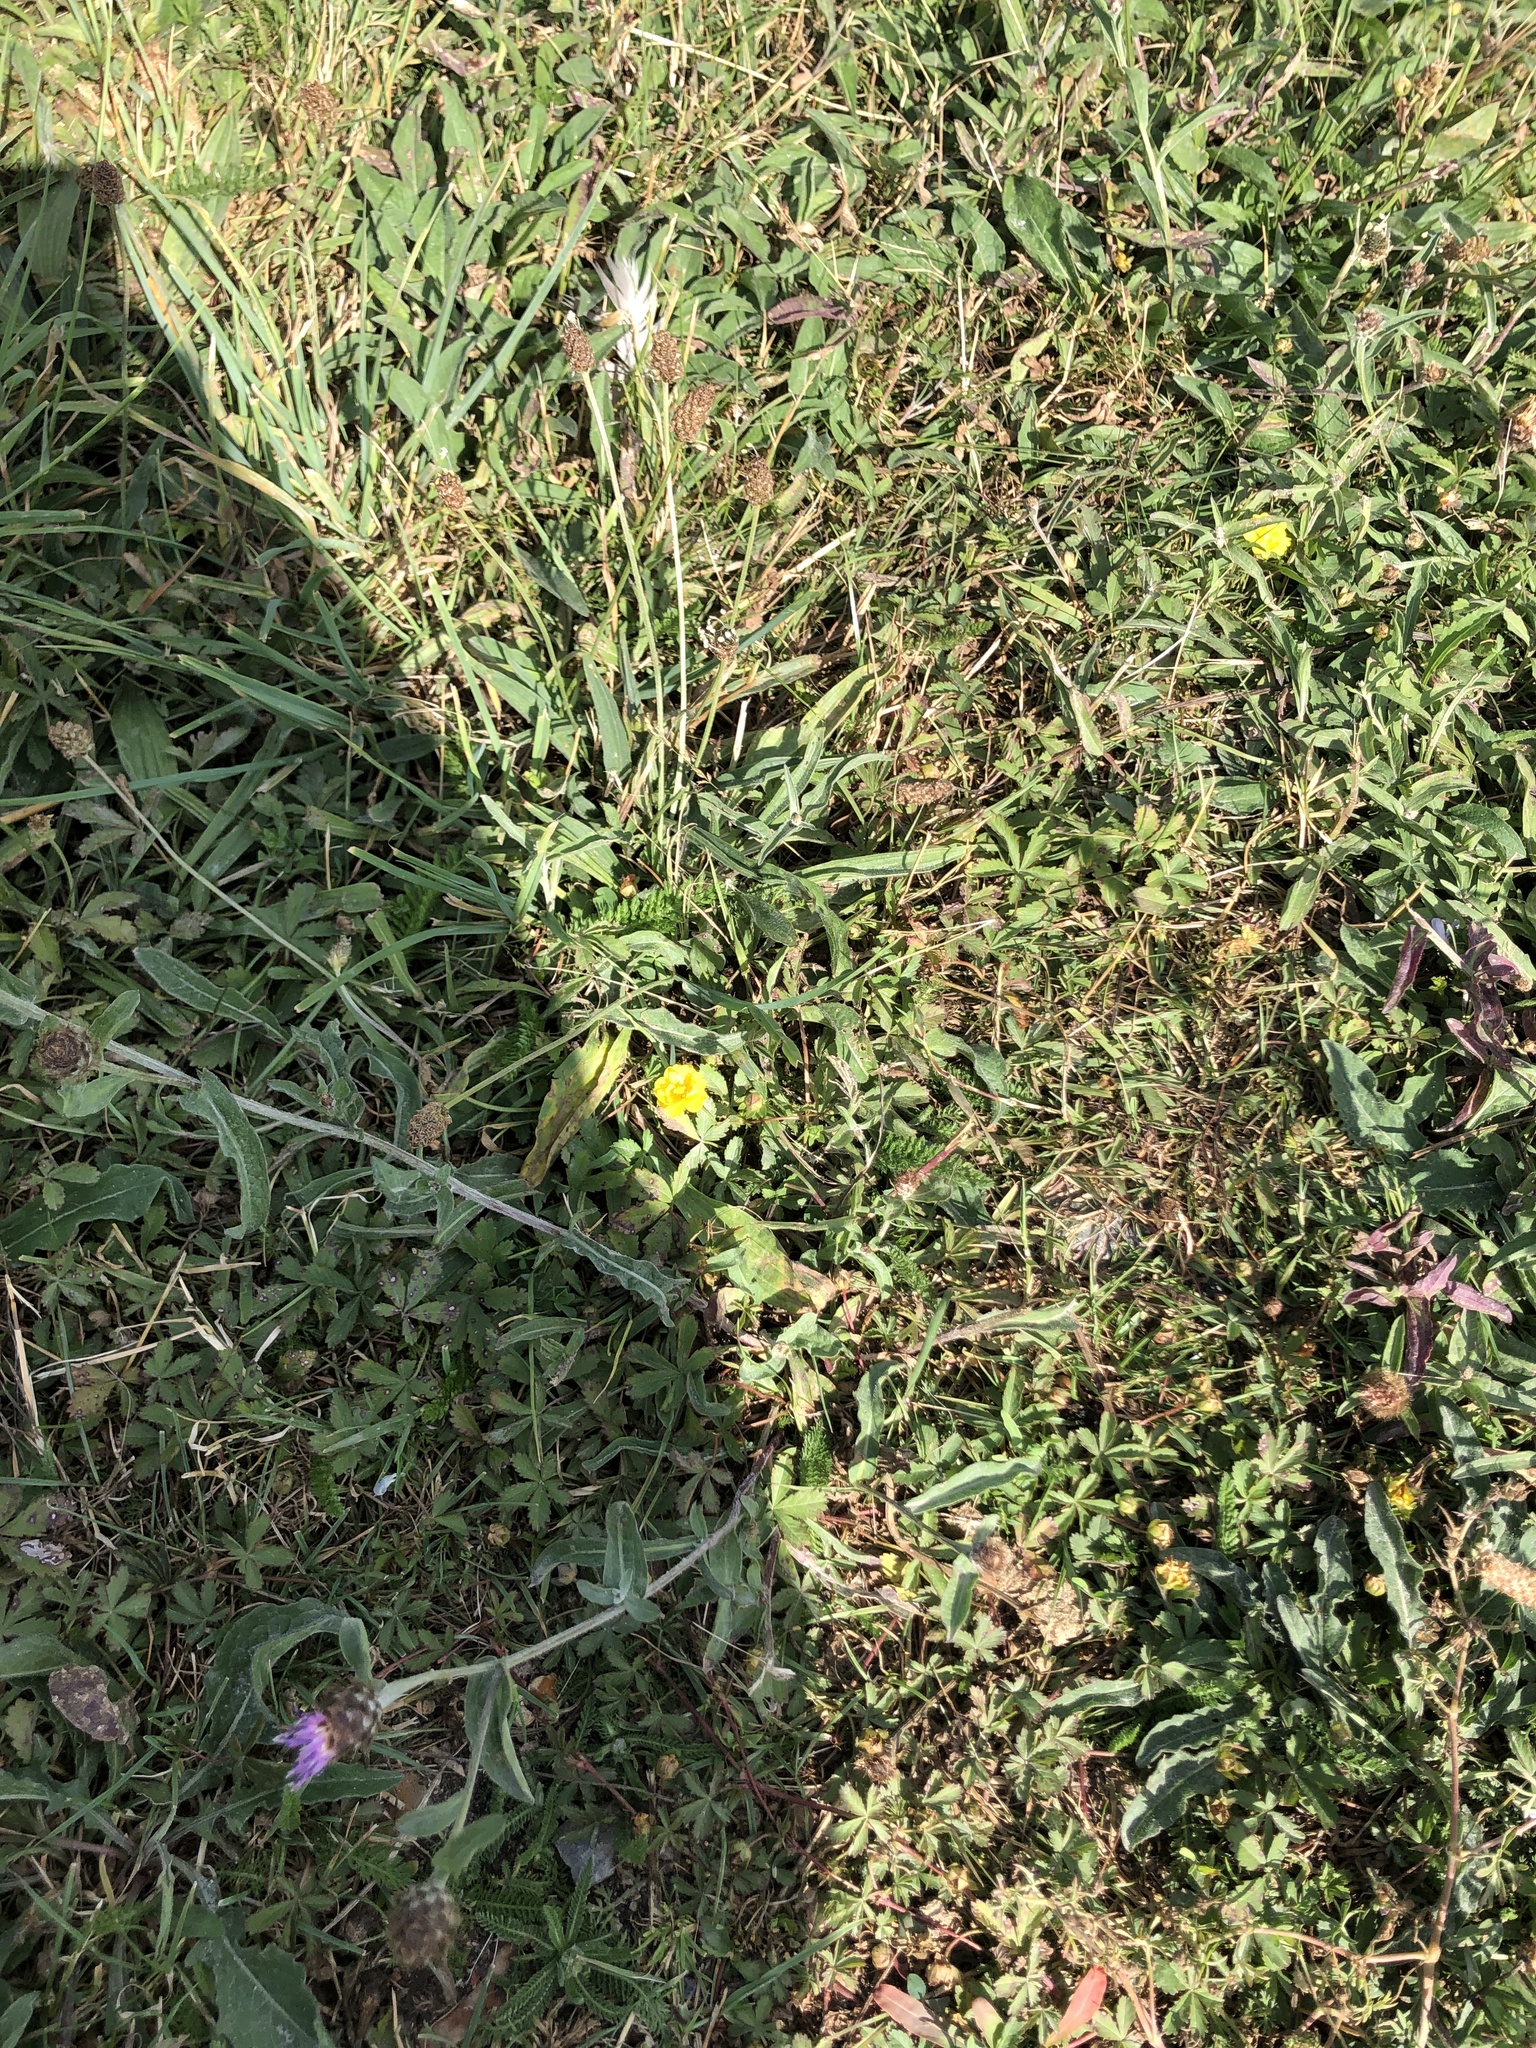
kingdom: Plantae
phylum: Tracheophyta
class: Magnoliopsida
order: Rosales
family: Rosaceae
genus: Potentilla
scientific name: Potentilla reptans
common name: Creeping cinquefoil
